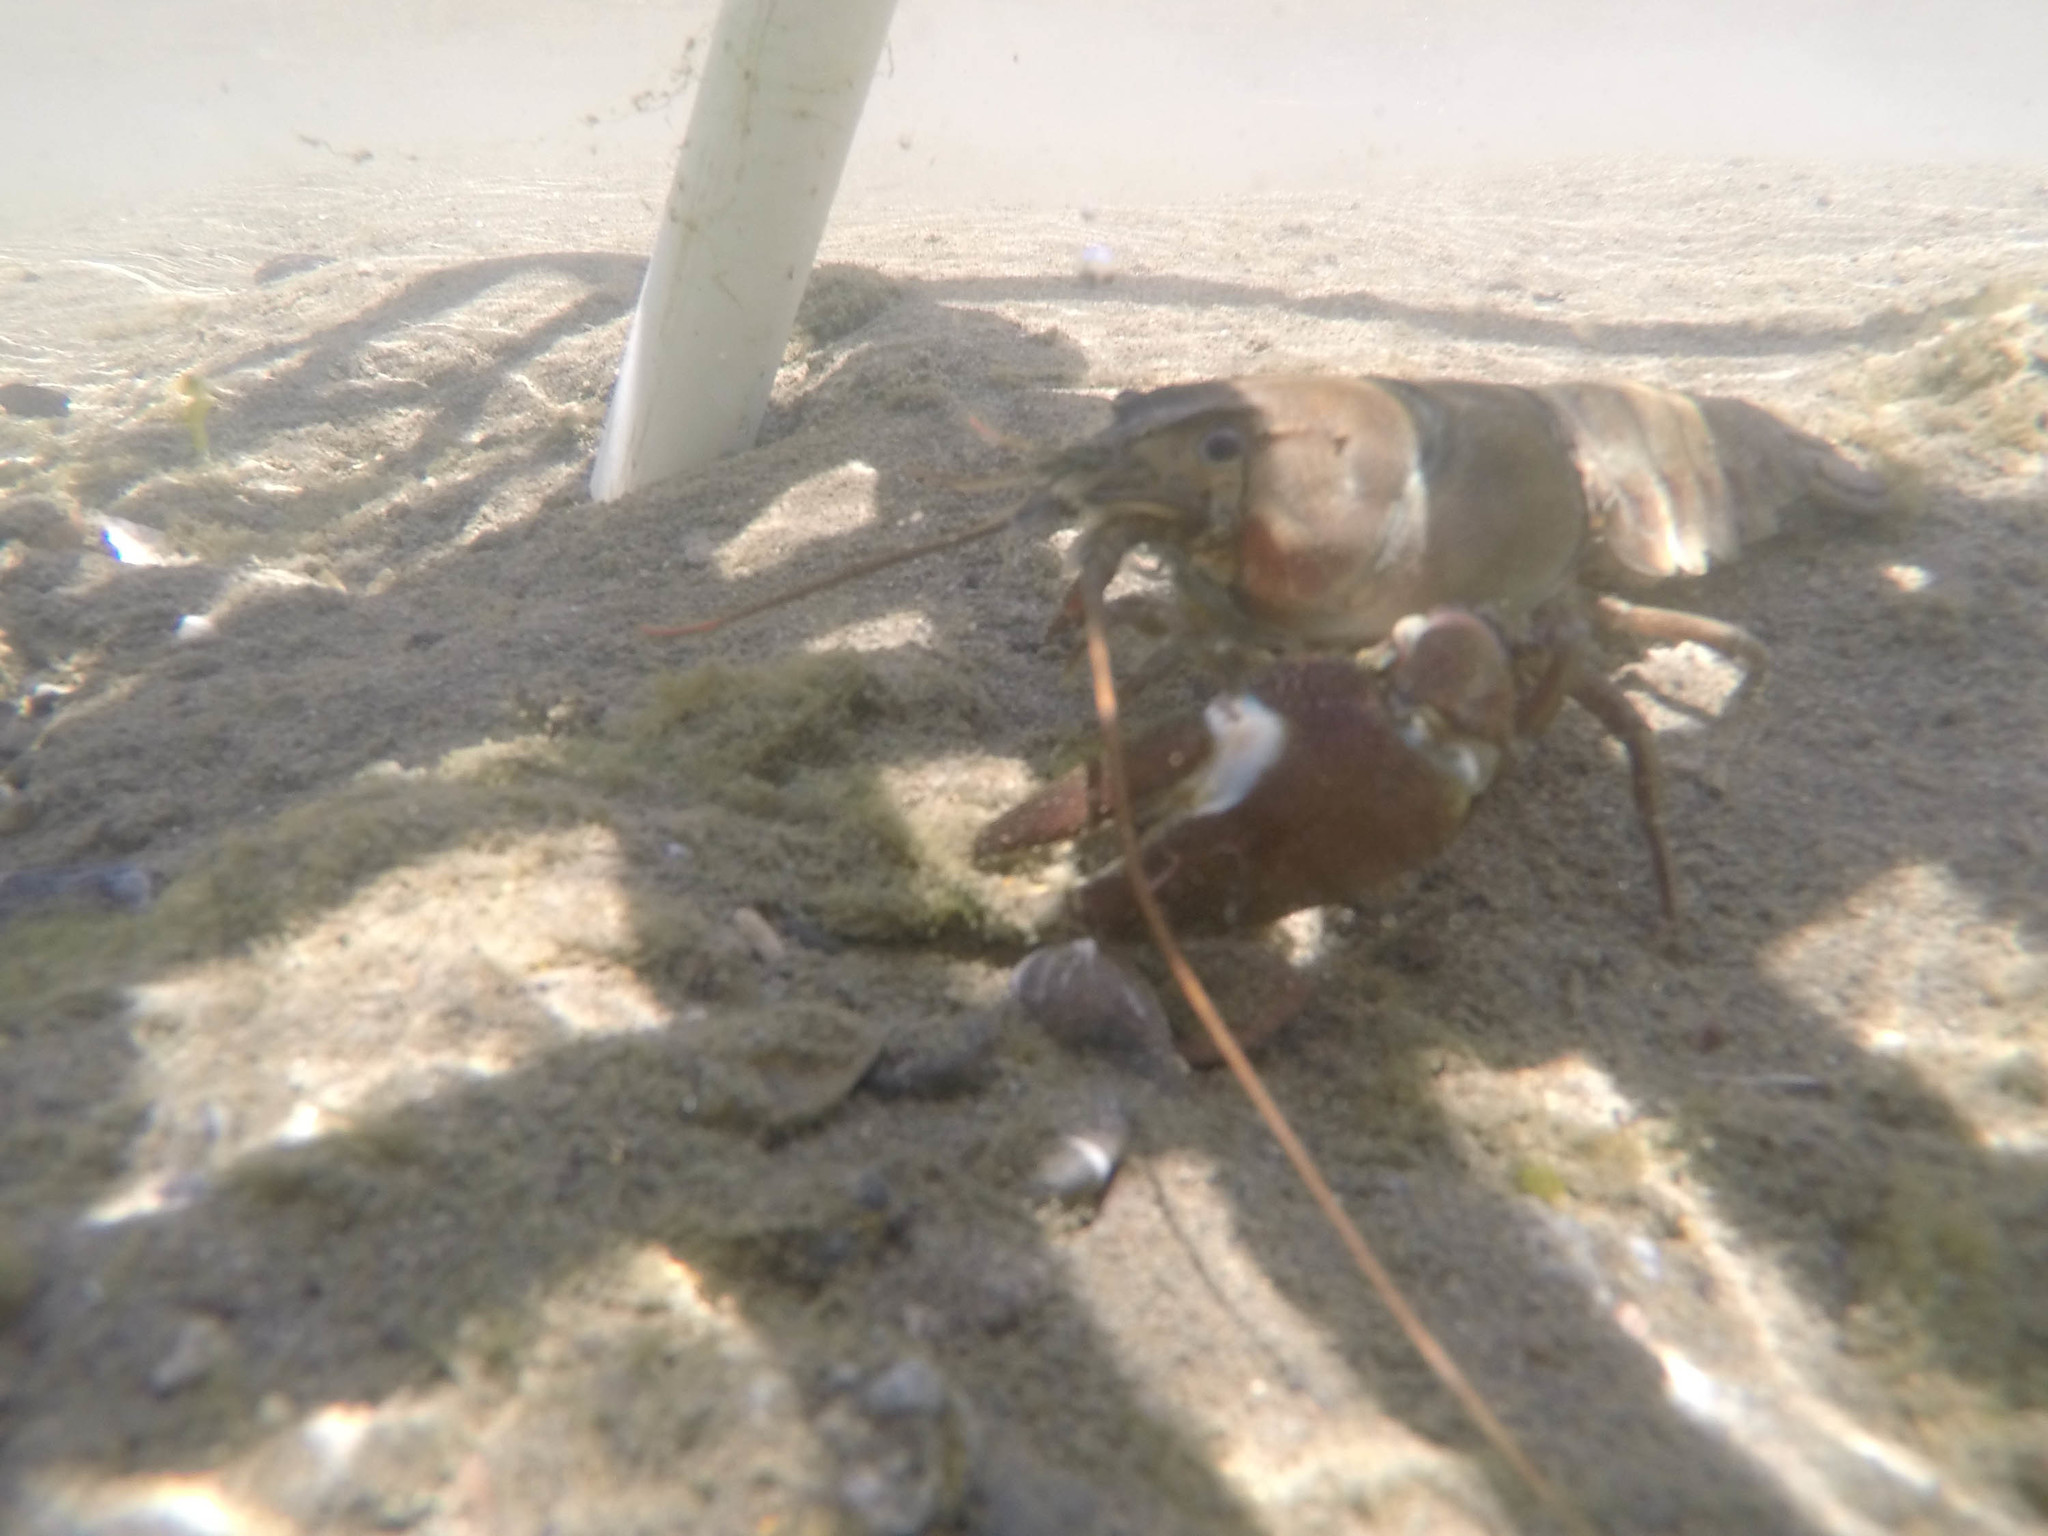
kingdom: Animalia
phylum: Arthropoda
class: Malacostraca
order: Decapoda
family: Astacidae
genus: Pacifastacus
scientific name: Pacifastacus leniusculus
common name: Signal crayfish
